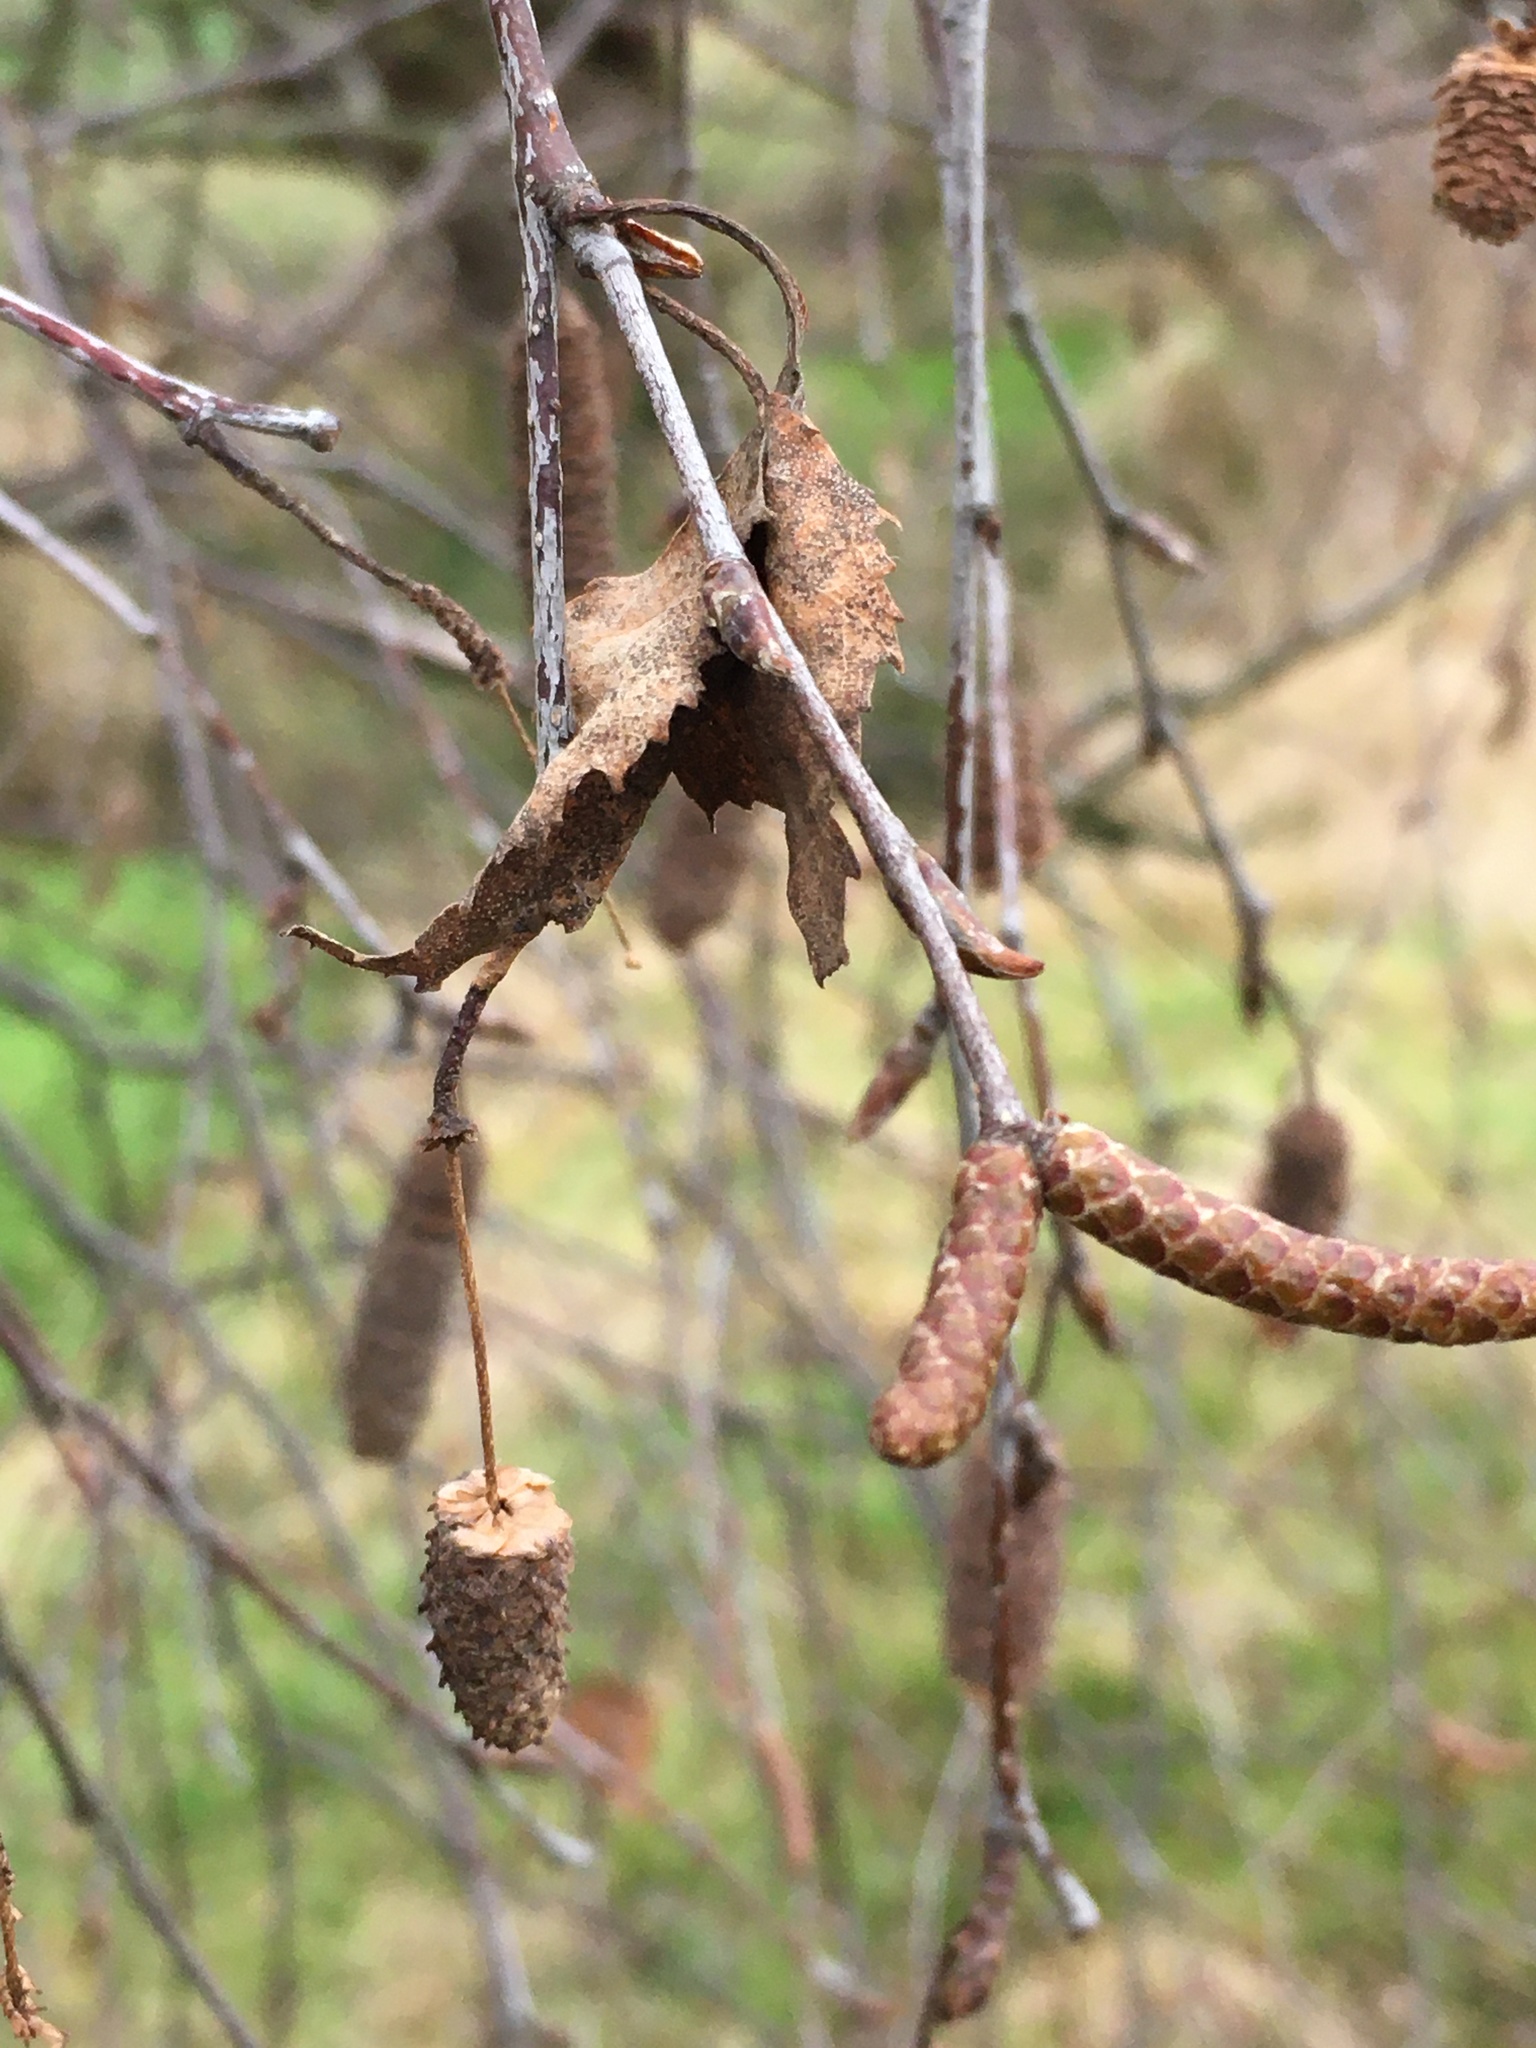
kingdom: Plantae
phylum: Tracheophyta
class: Magnoliopsida
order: Fagales
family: Betulaceae
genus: Betula
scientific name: Betula pendula
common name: Silver birch
